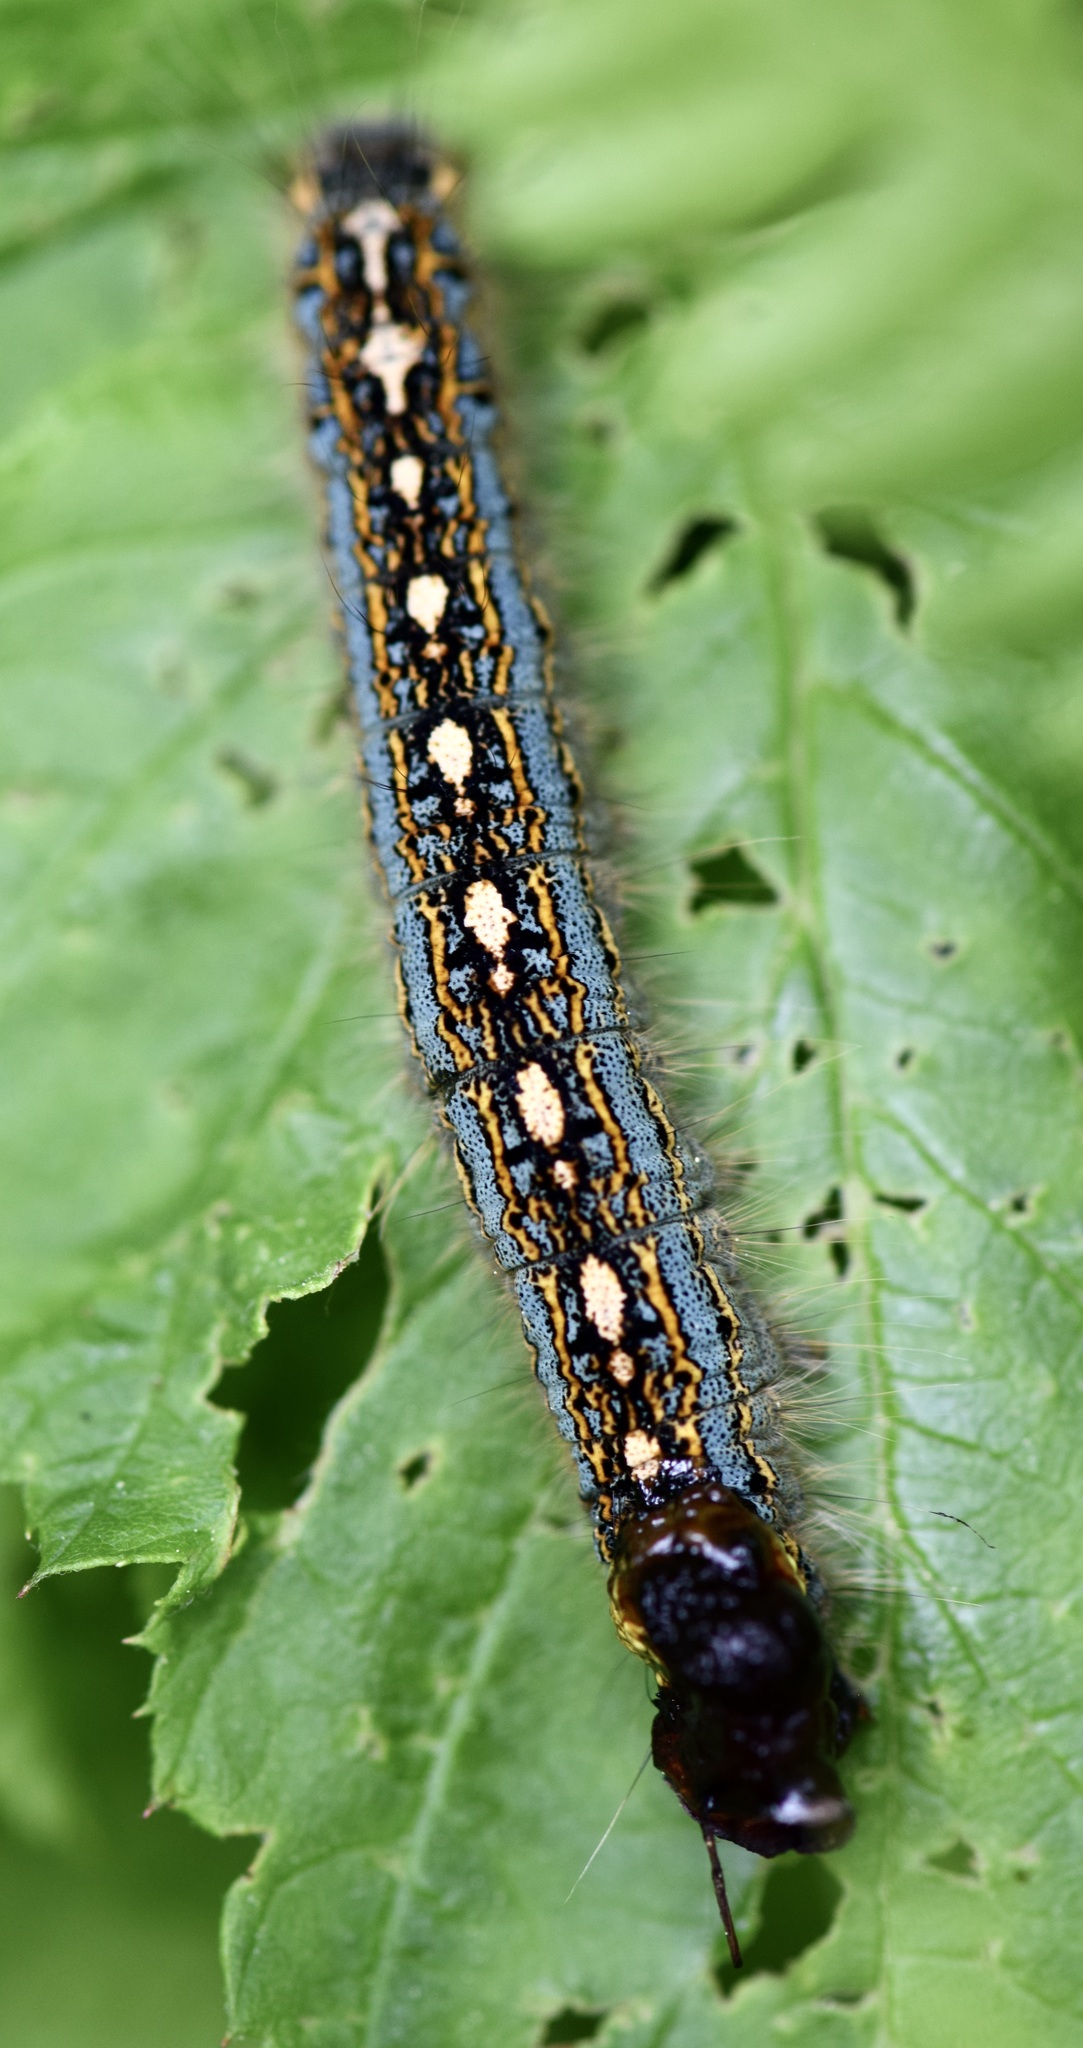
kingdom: Animalia
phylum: Arthropoda
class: Insecta
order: Lepidoptera
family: Lasiocampidae
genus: Malacosoma
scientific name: Malacosoma disstria
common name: Forest tent caterpillar
